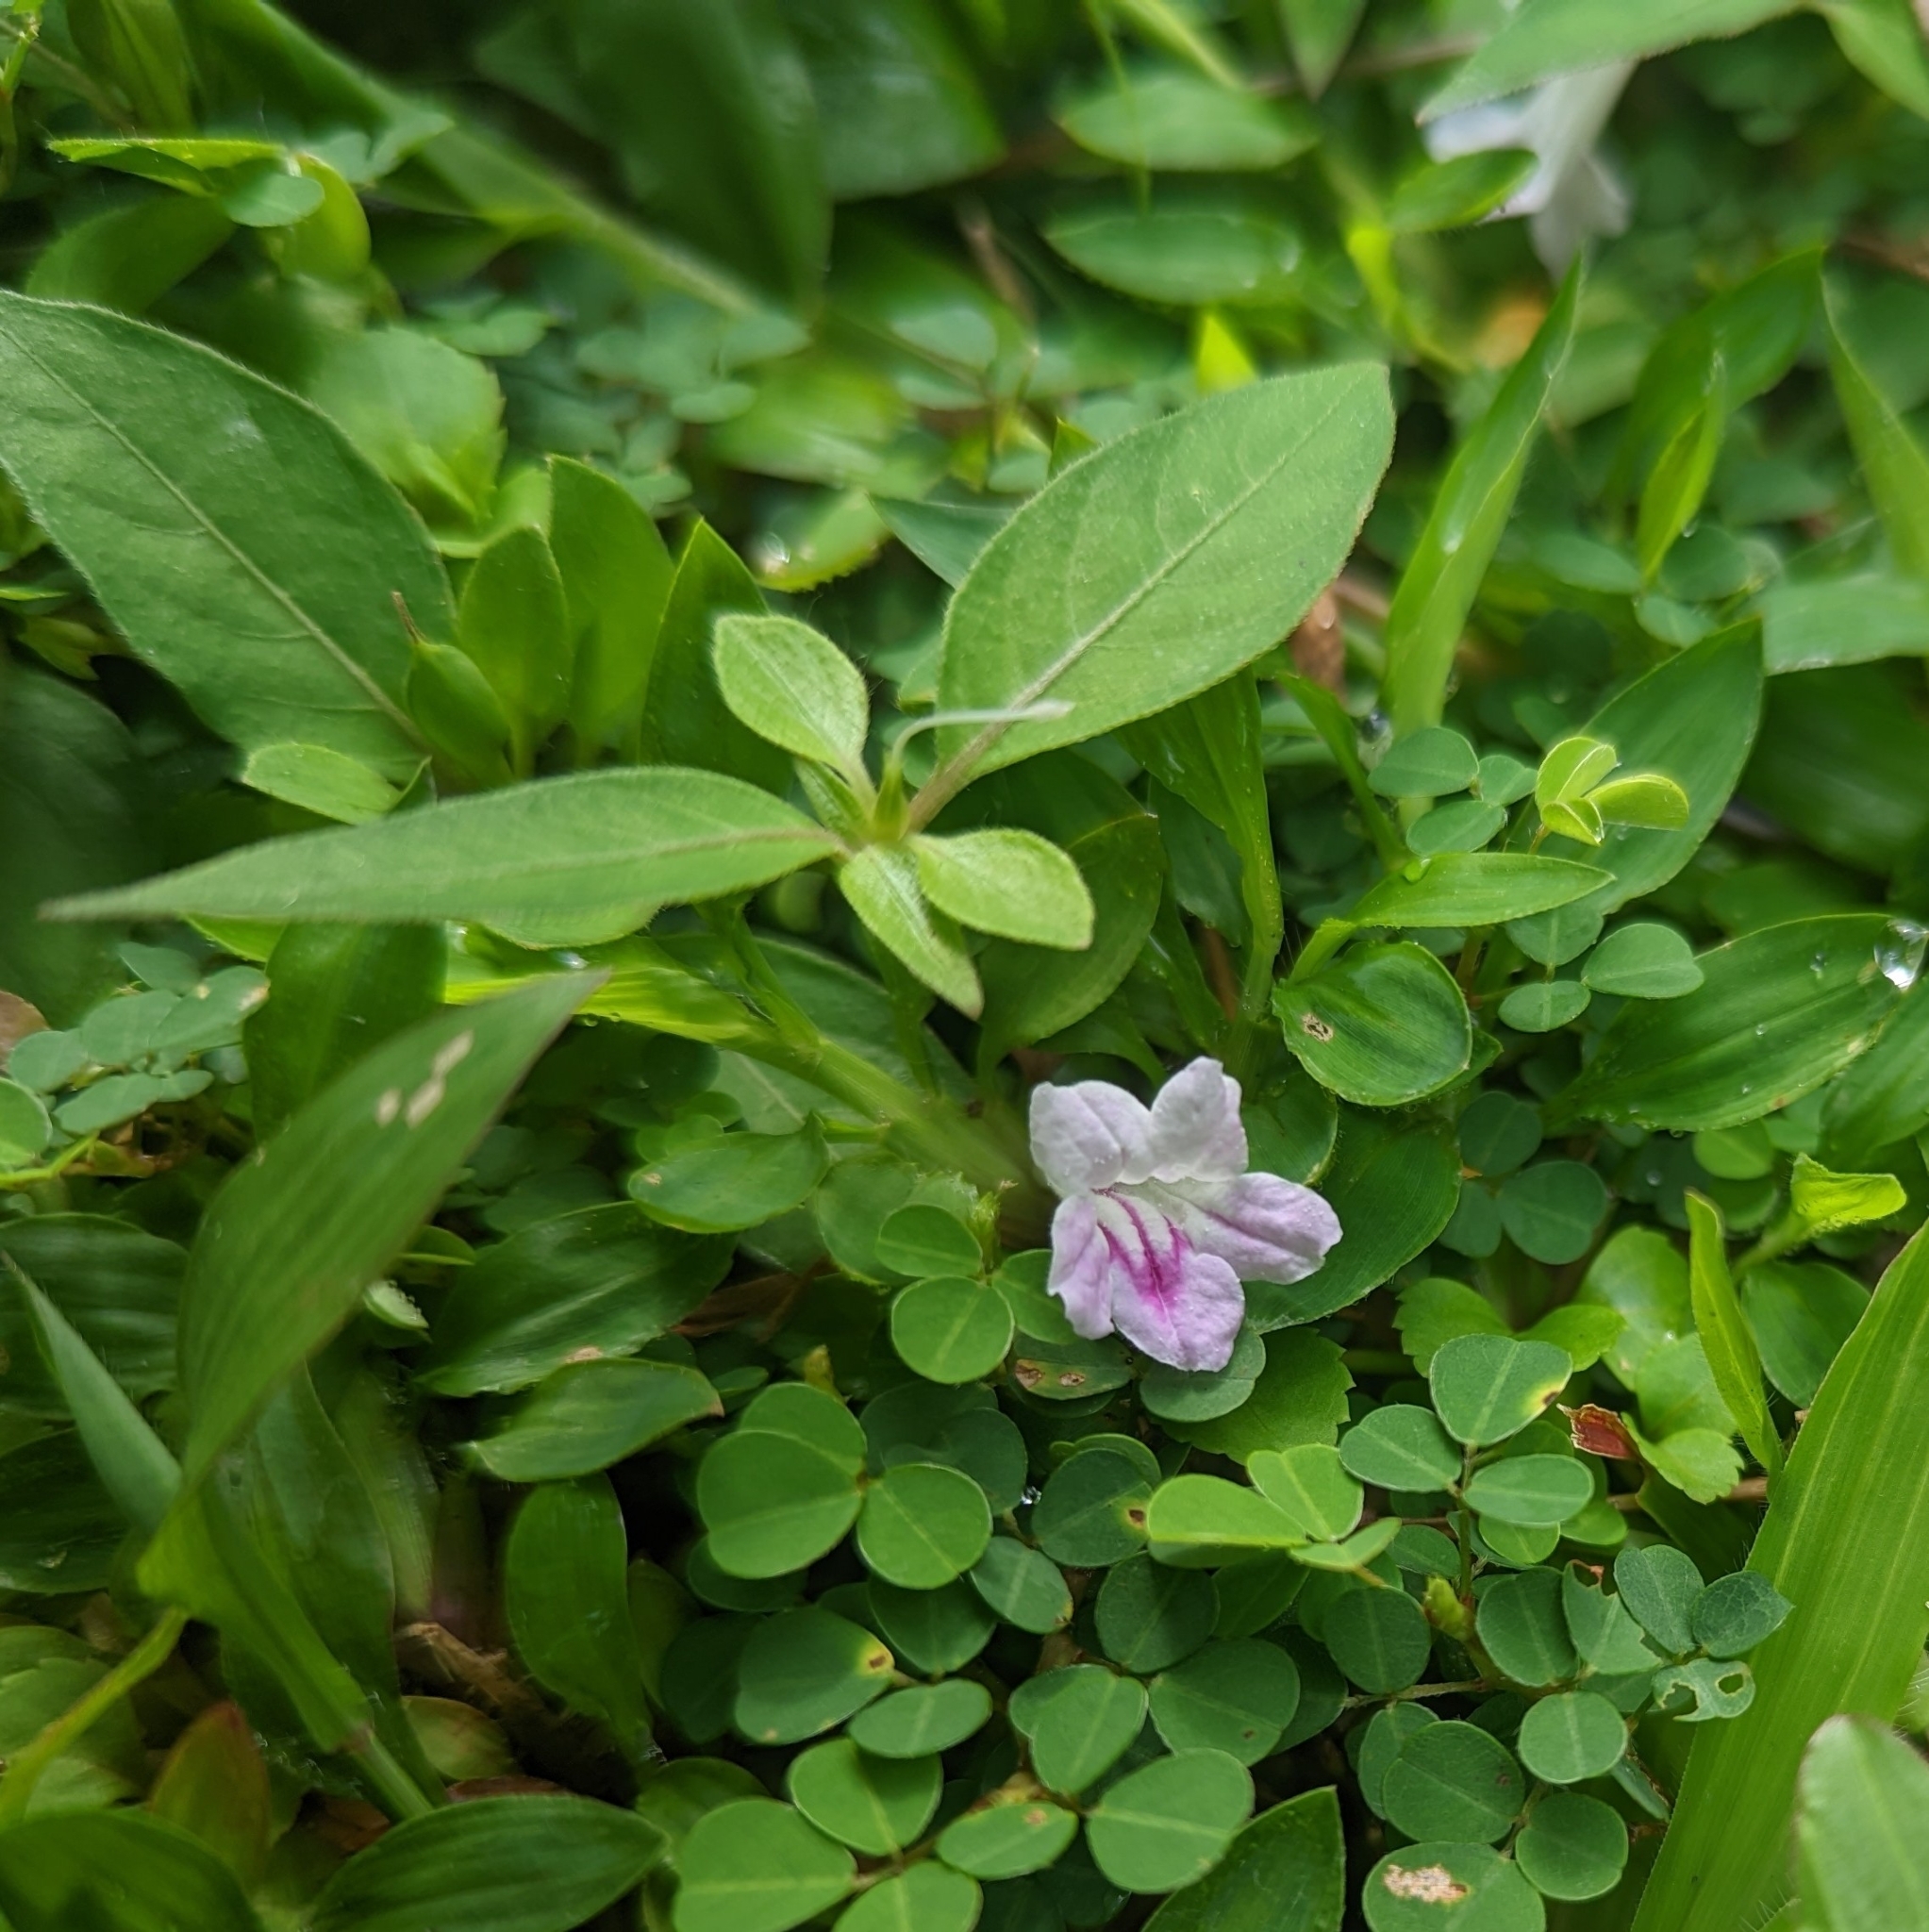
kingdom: Plantae
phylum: Tracheophyta
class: Magnoliopsida
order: Lamiales
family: Acanthaceae
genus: Ruellia
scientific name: Ruellia repens
